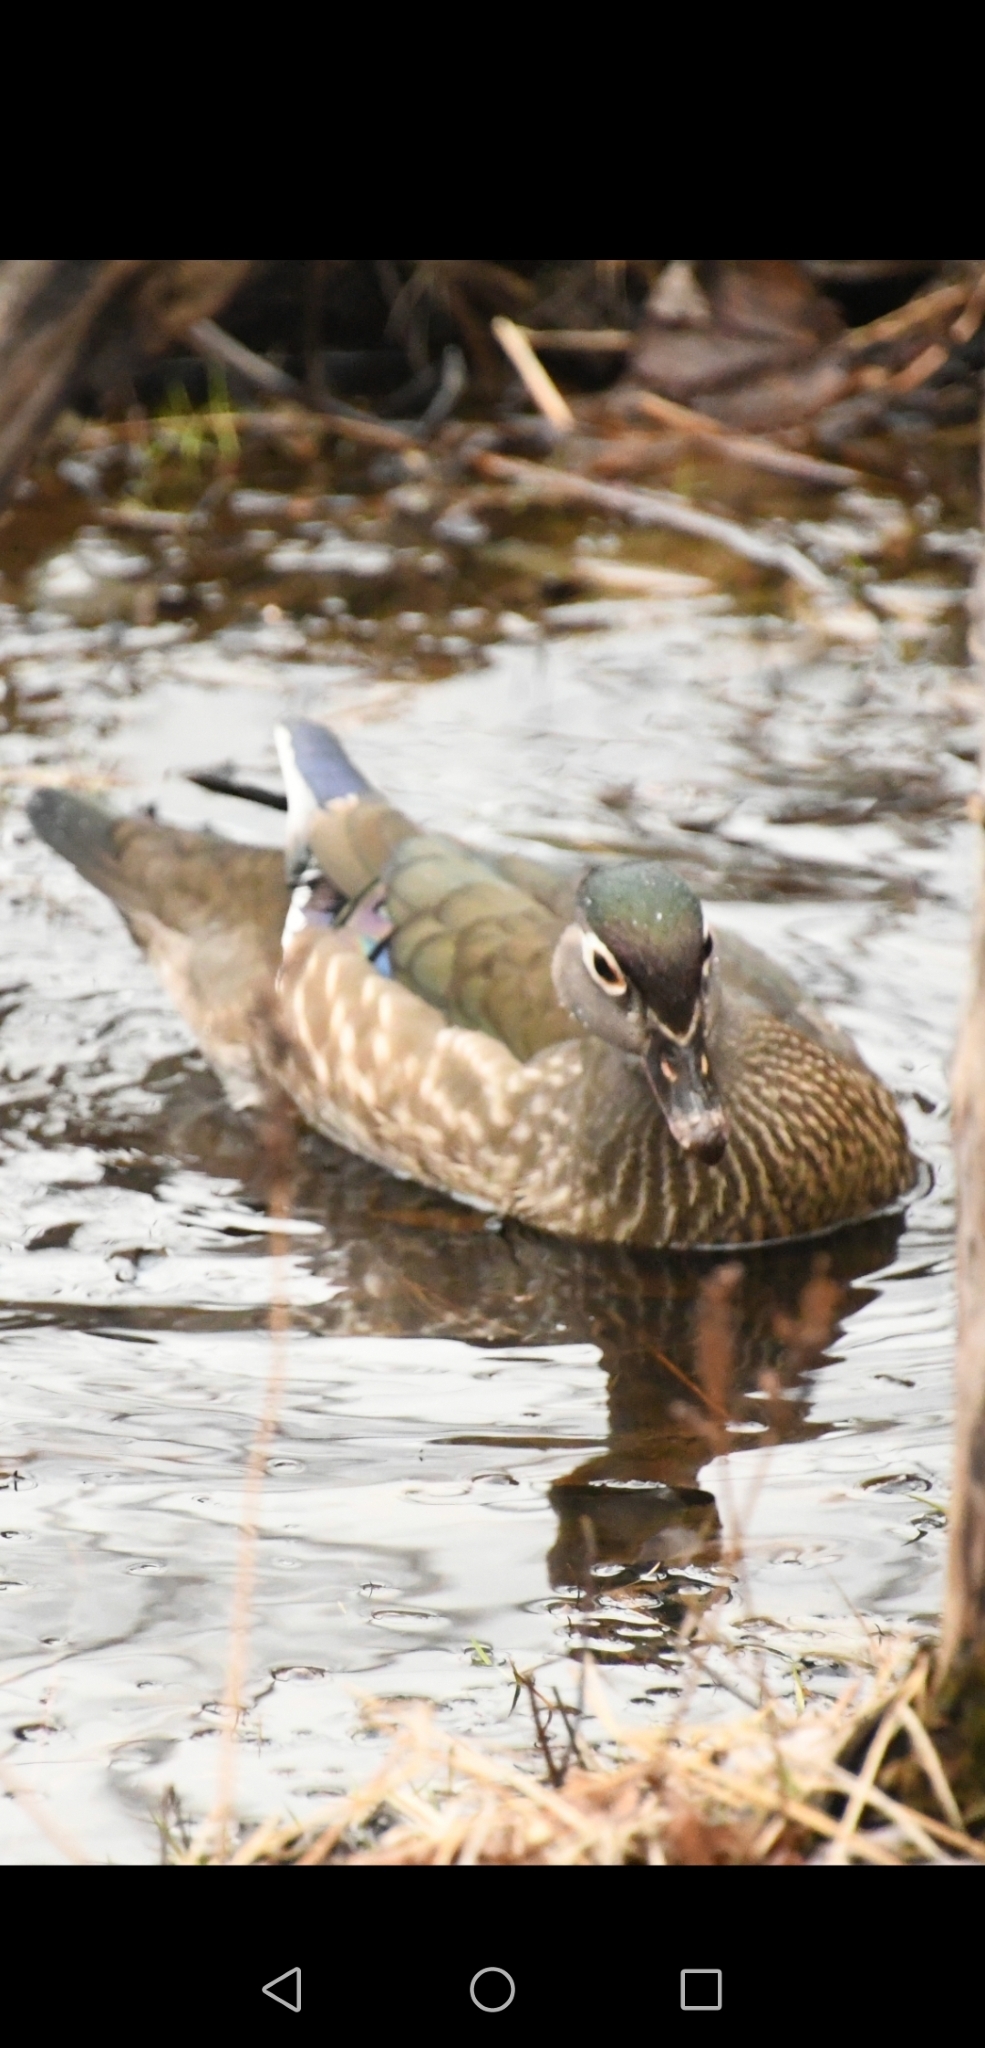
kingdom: Animalia
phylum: Chordata
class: Aves
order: Anseriformes
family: Anatidae
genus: Aix
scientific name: Aix sponsa
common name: Wood duck
